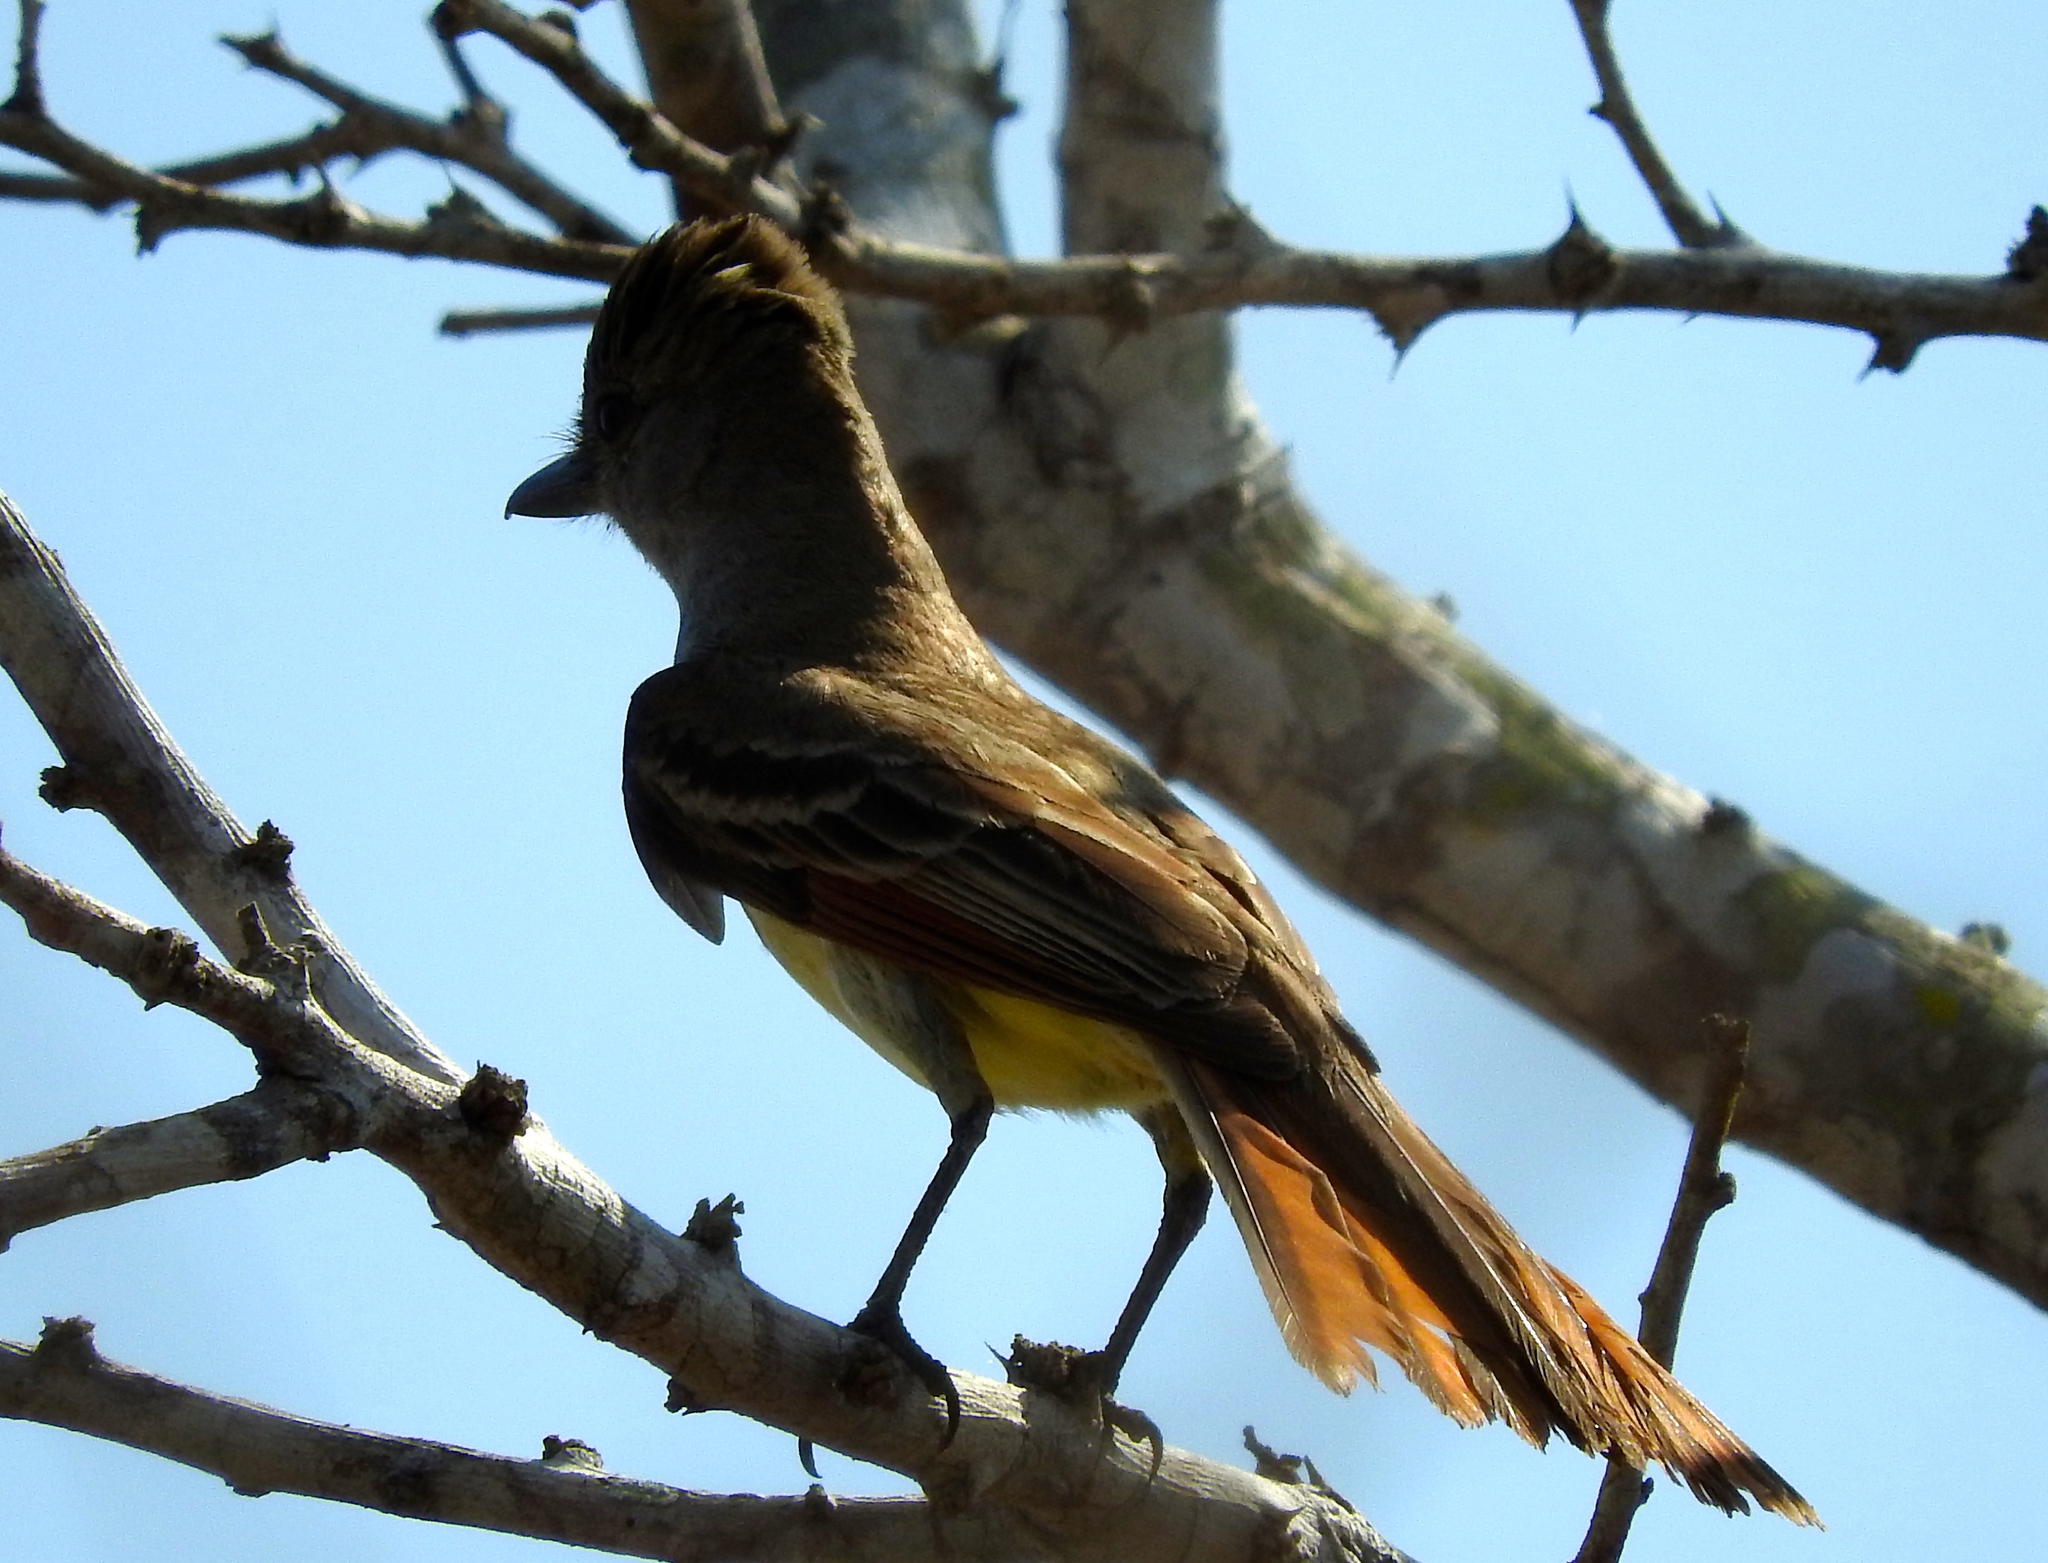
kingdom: Animalia
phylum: Chordata
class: Aves
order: Passeriformes
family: Tyrannidae
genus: Myiarchus
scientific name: Myiarchus tyrannulus
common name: Brown-crested flycatcher
